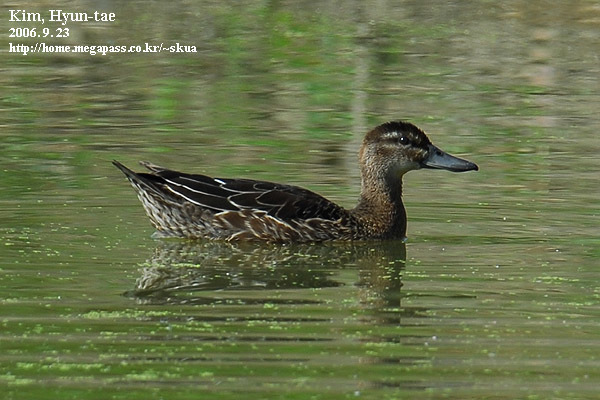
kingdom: Animalia
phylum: Chordata
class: Aves
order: Anseriformes
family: Anatidae
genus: Spatula
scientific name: Spatula querquedula
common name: Garganey
